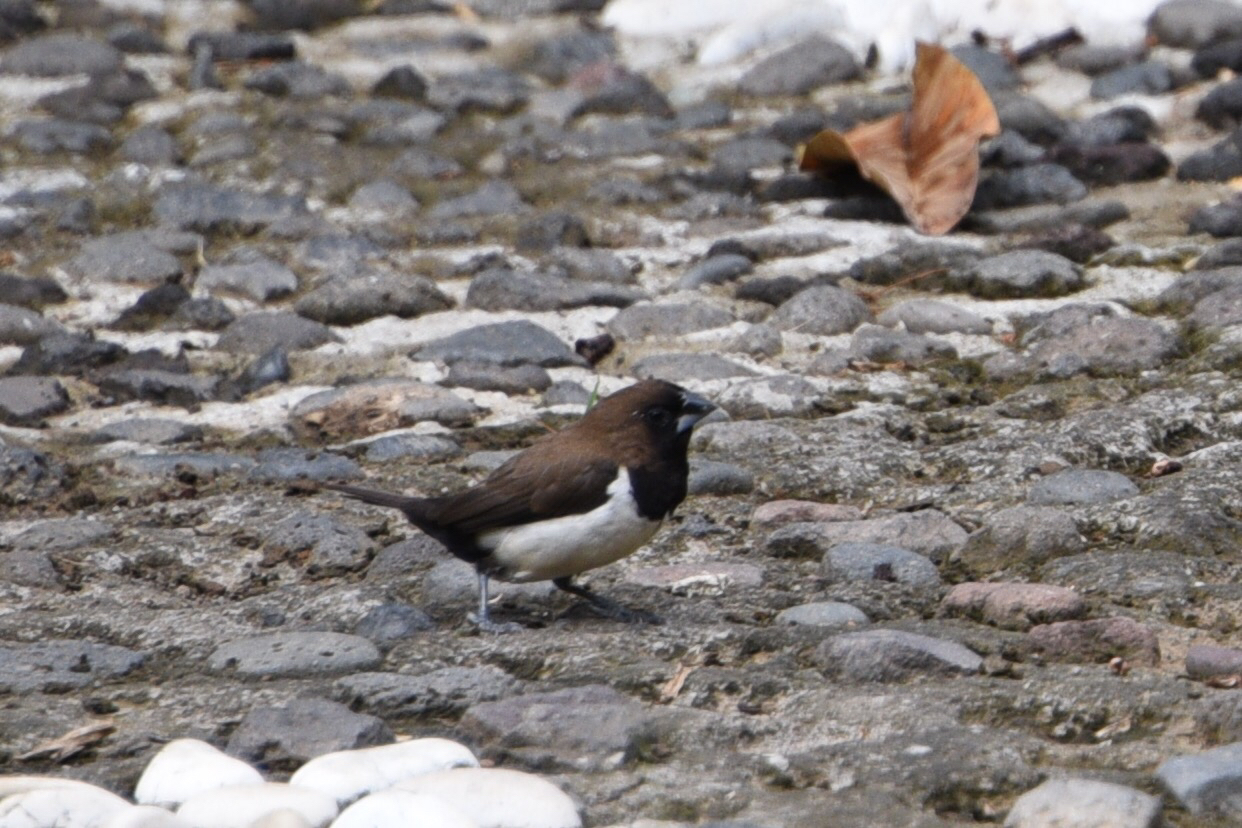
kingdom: Animalia
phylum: Chordata
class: Aves
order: Passeriformes
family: Estrildidae
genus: Lonchura
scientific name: Lonchura leucogastroides
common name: Javan munia
